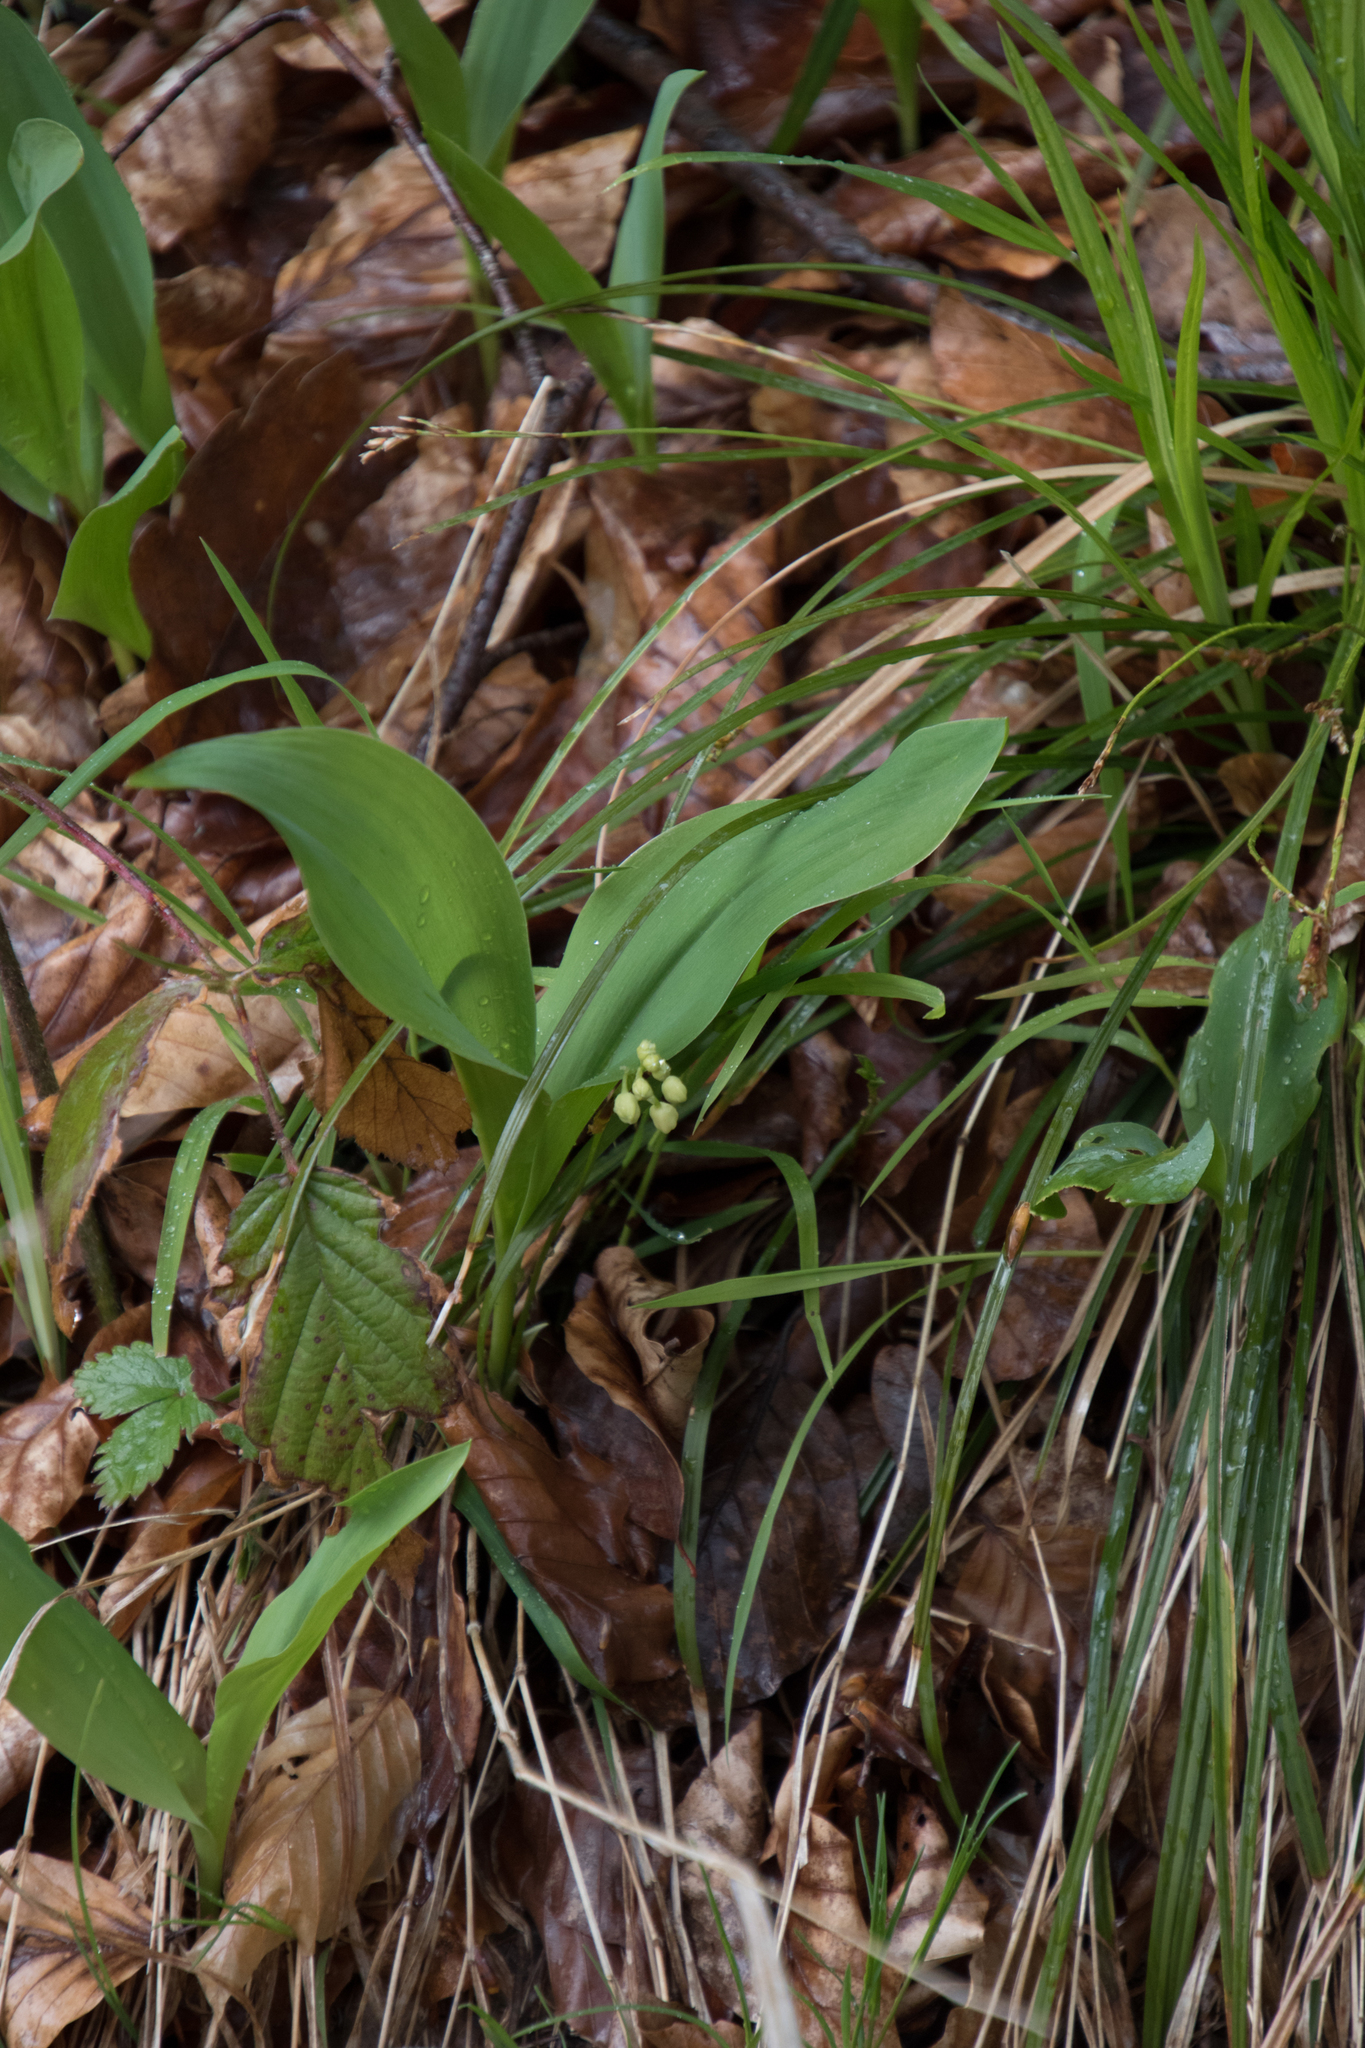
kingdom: Plantae
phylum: Tracheophyta
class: Liliopsida
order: Asparagales
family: Asparagaceae
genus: Convallaria
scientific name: Convallaria majalis
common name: Lily-of-the-valley
